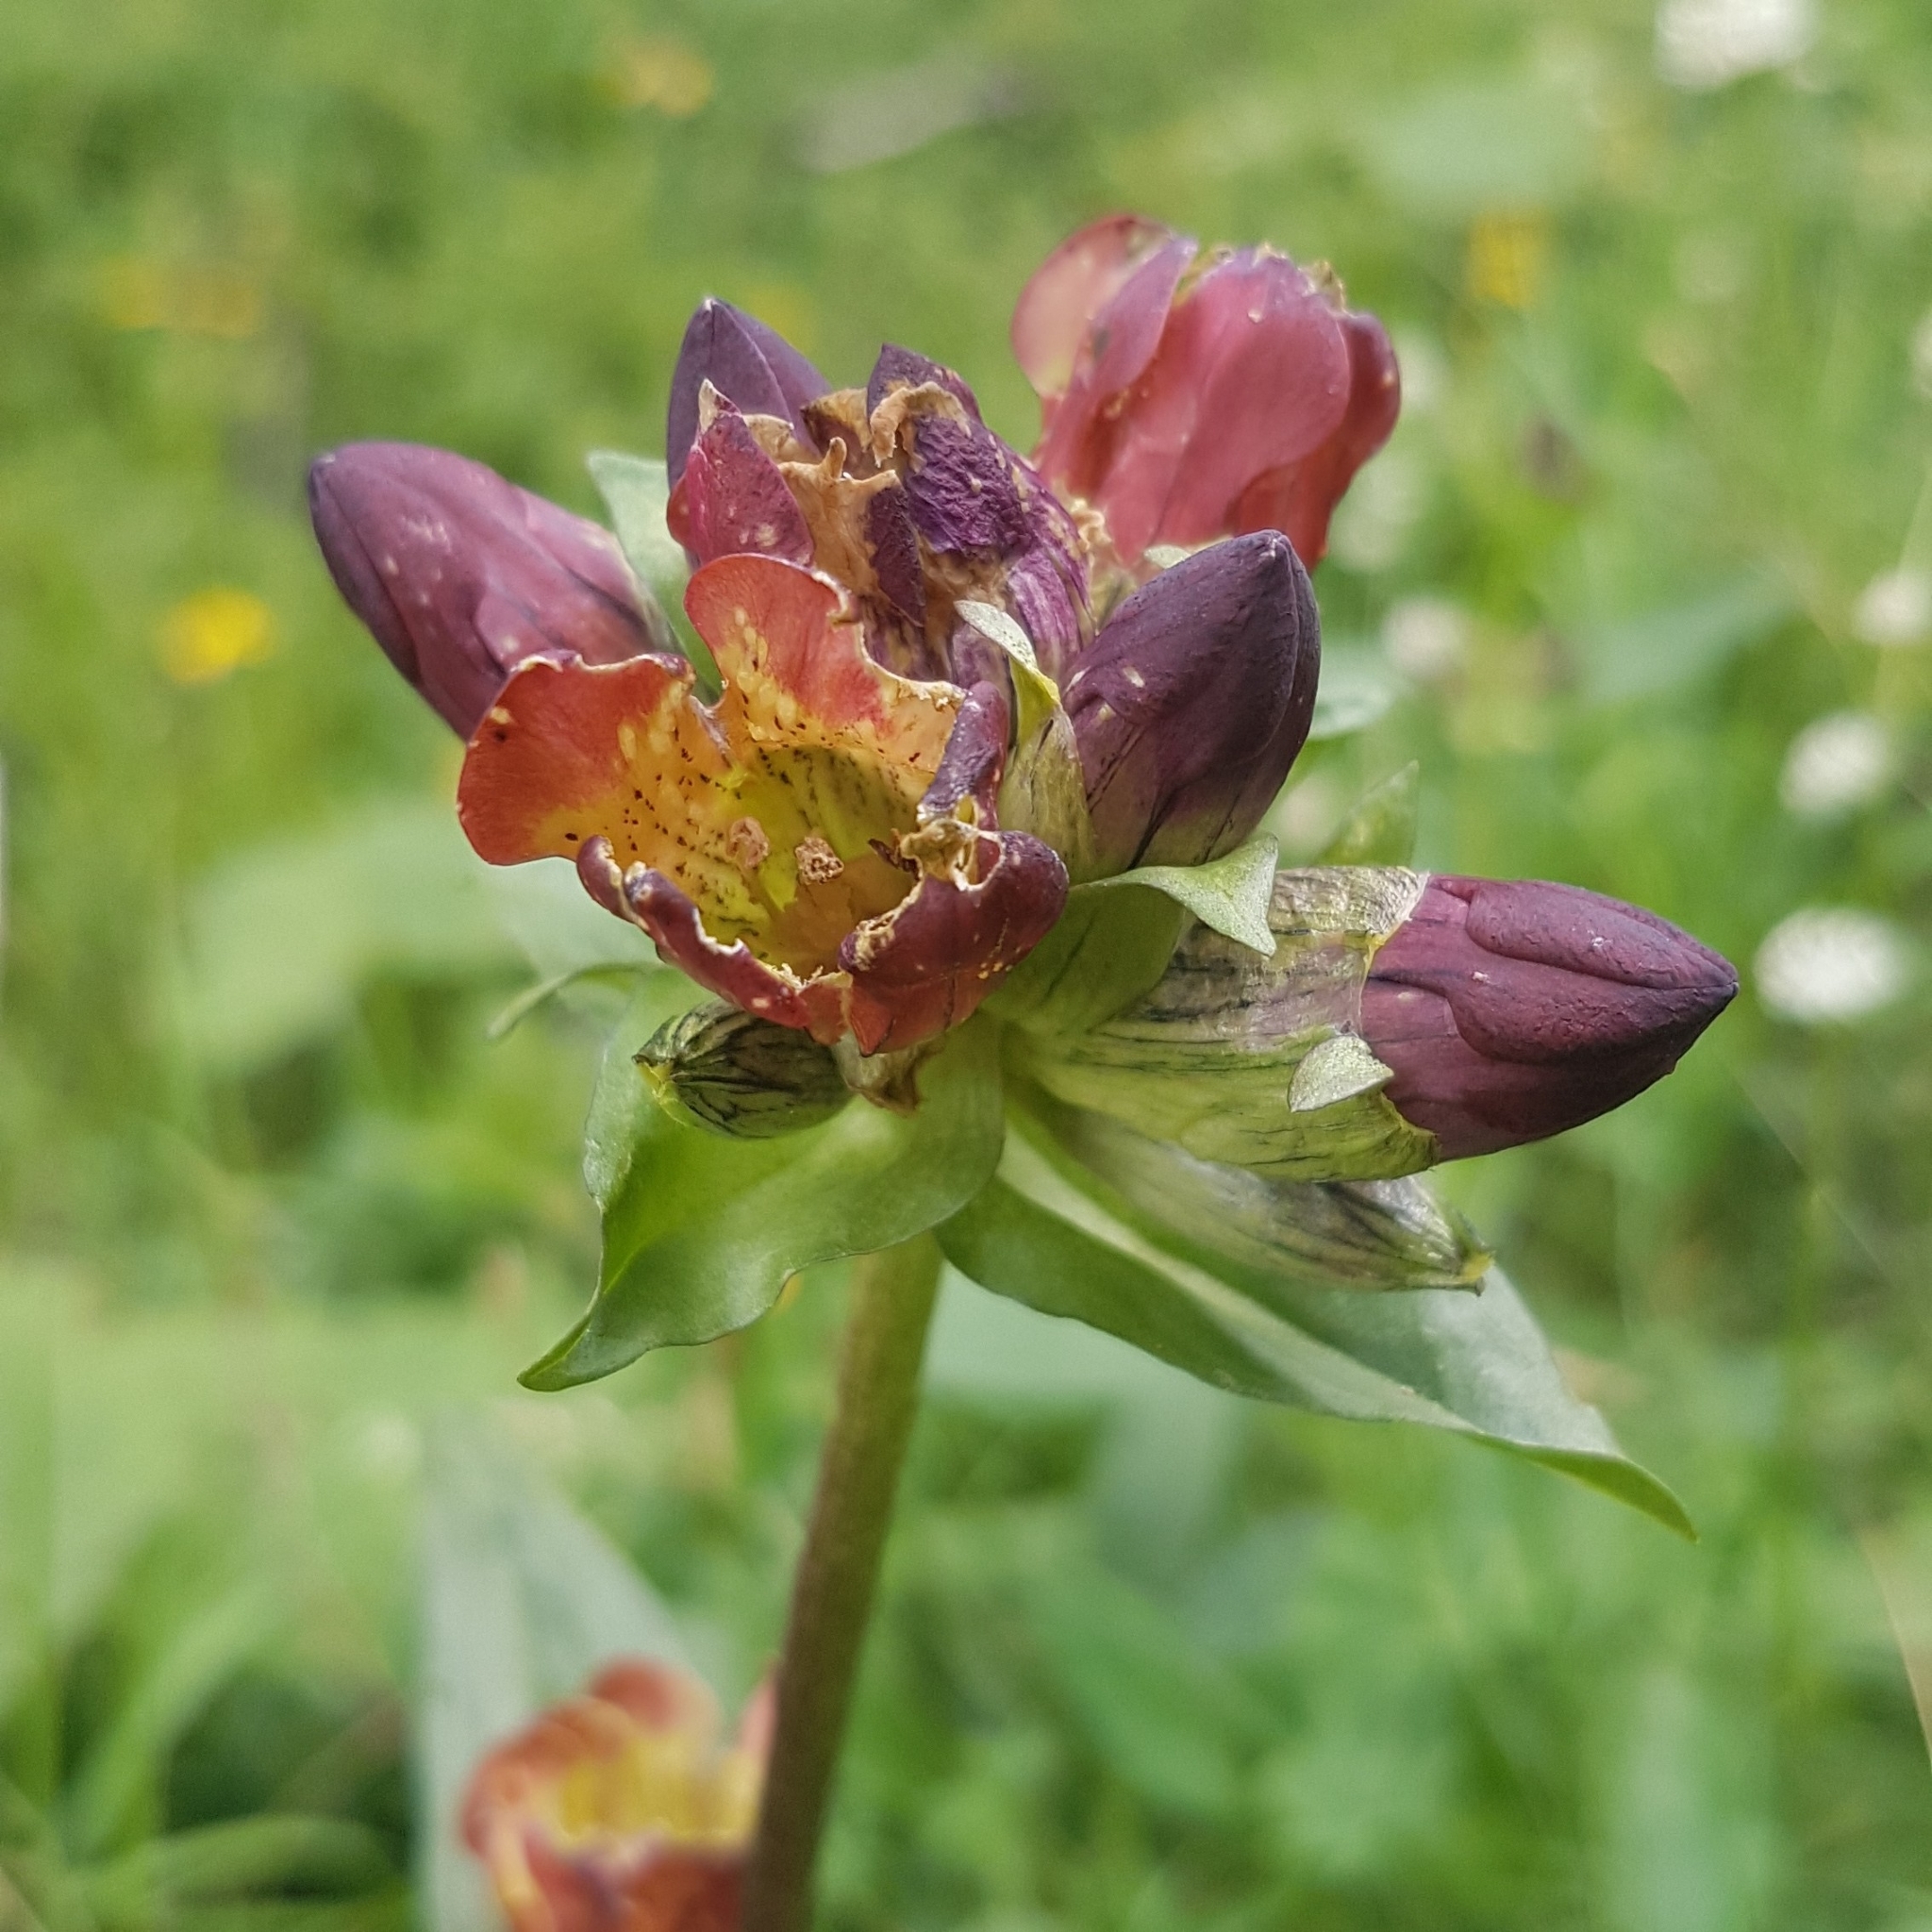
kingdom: Plantae
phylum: Tracheophyta
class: Magnoliopsida
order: Gentianales
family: Gentianaceae
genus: Gentiana
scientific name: Gentiana purpurea
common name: Purple gentian
